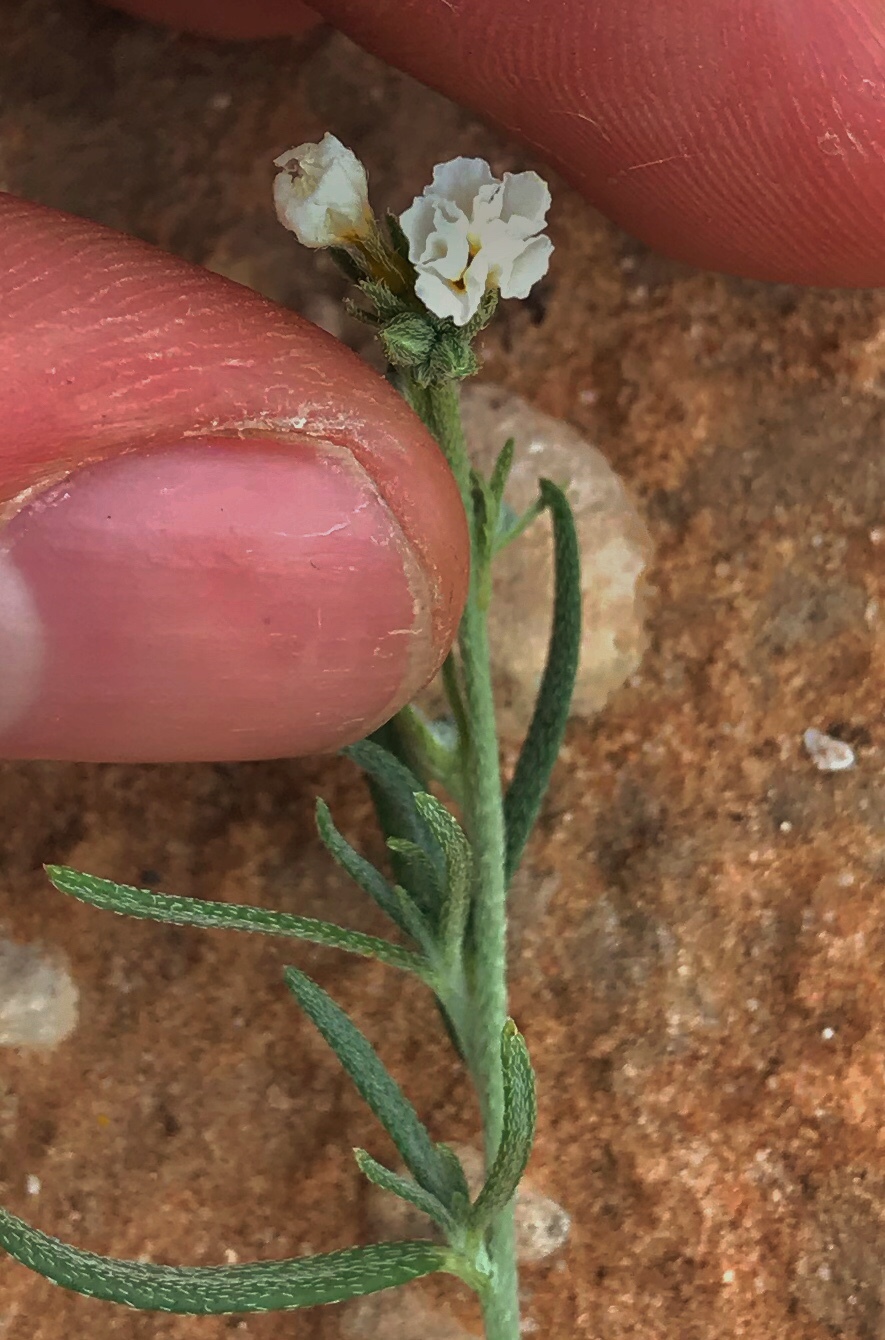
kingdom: Plantae
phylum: Tracheophyta
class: Magnoliopsida
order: Boraginales
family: Heliotropiaceae
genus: Euploca
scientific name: Euploca greggii
